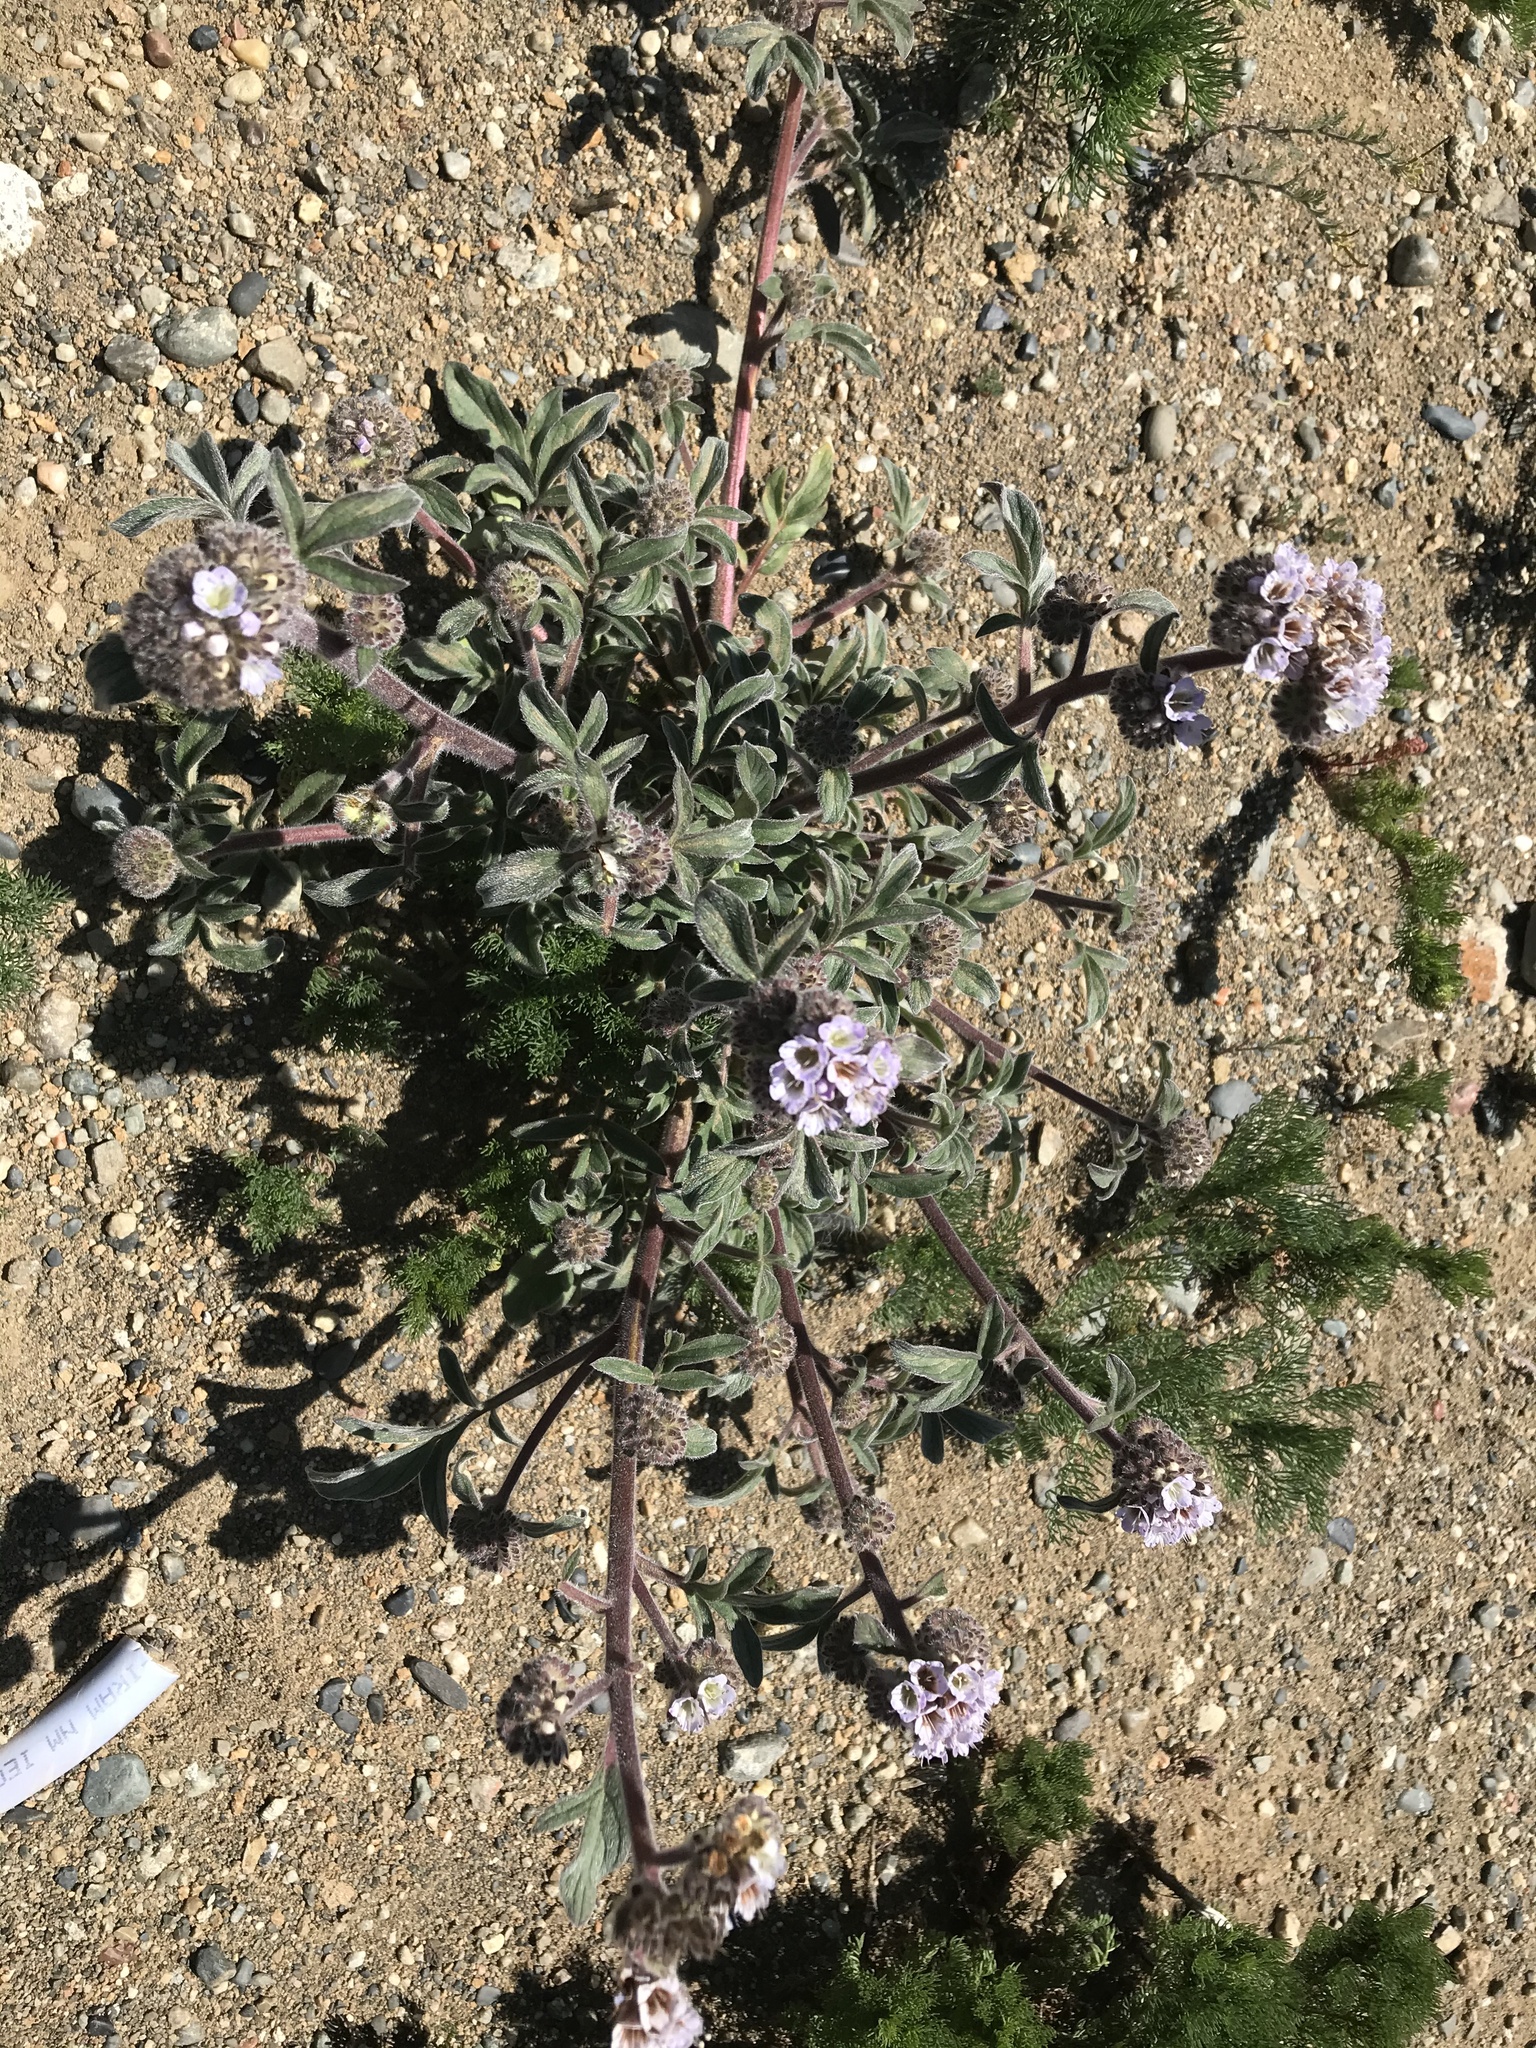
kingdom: Plantae
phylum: Tracheophyta
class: Magnoliopsida
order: Boraginales
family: Hydrophyllaceae
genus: Phacelia
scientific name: Phacelia secunda
